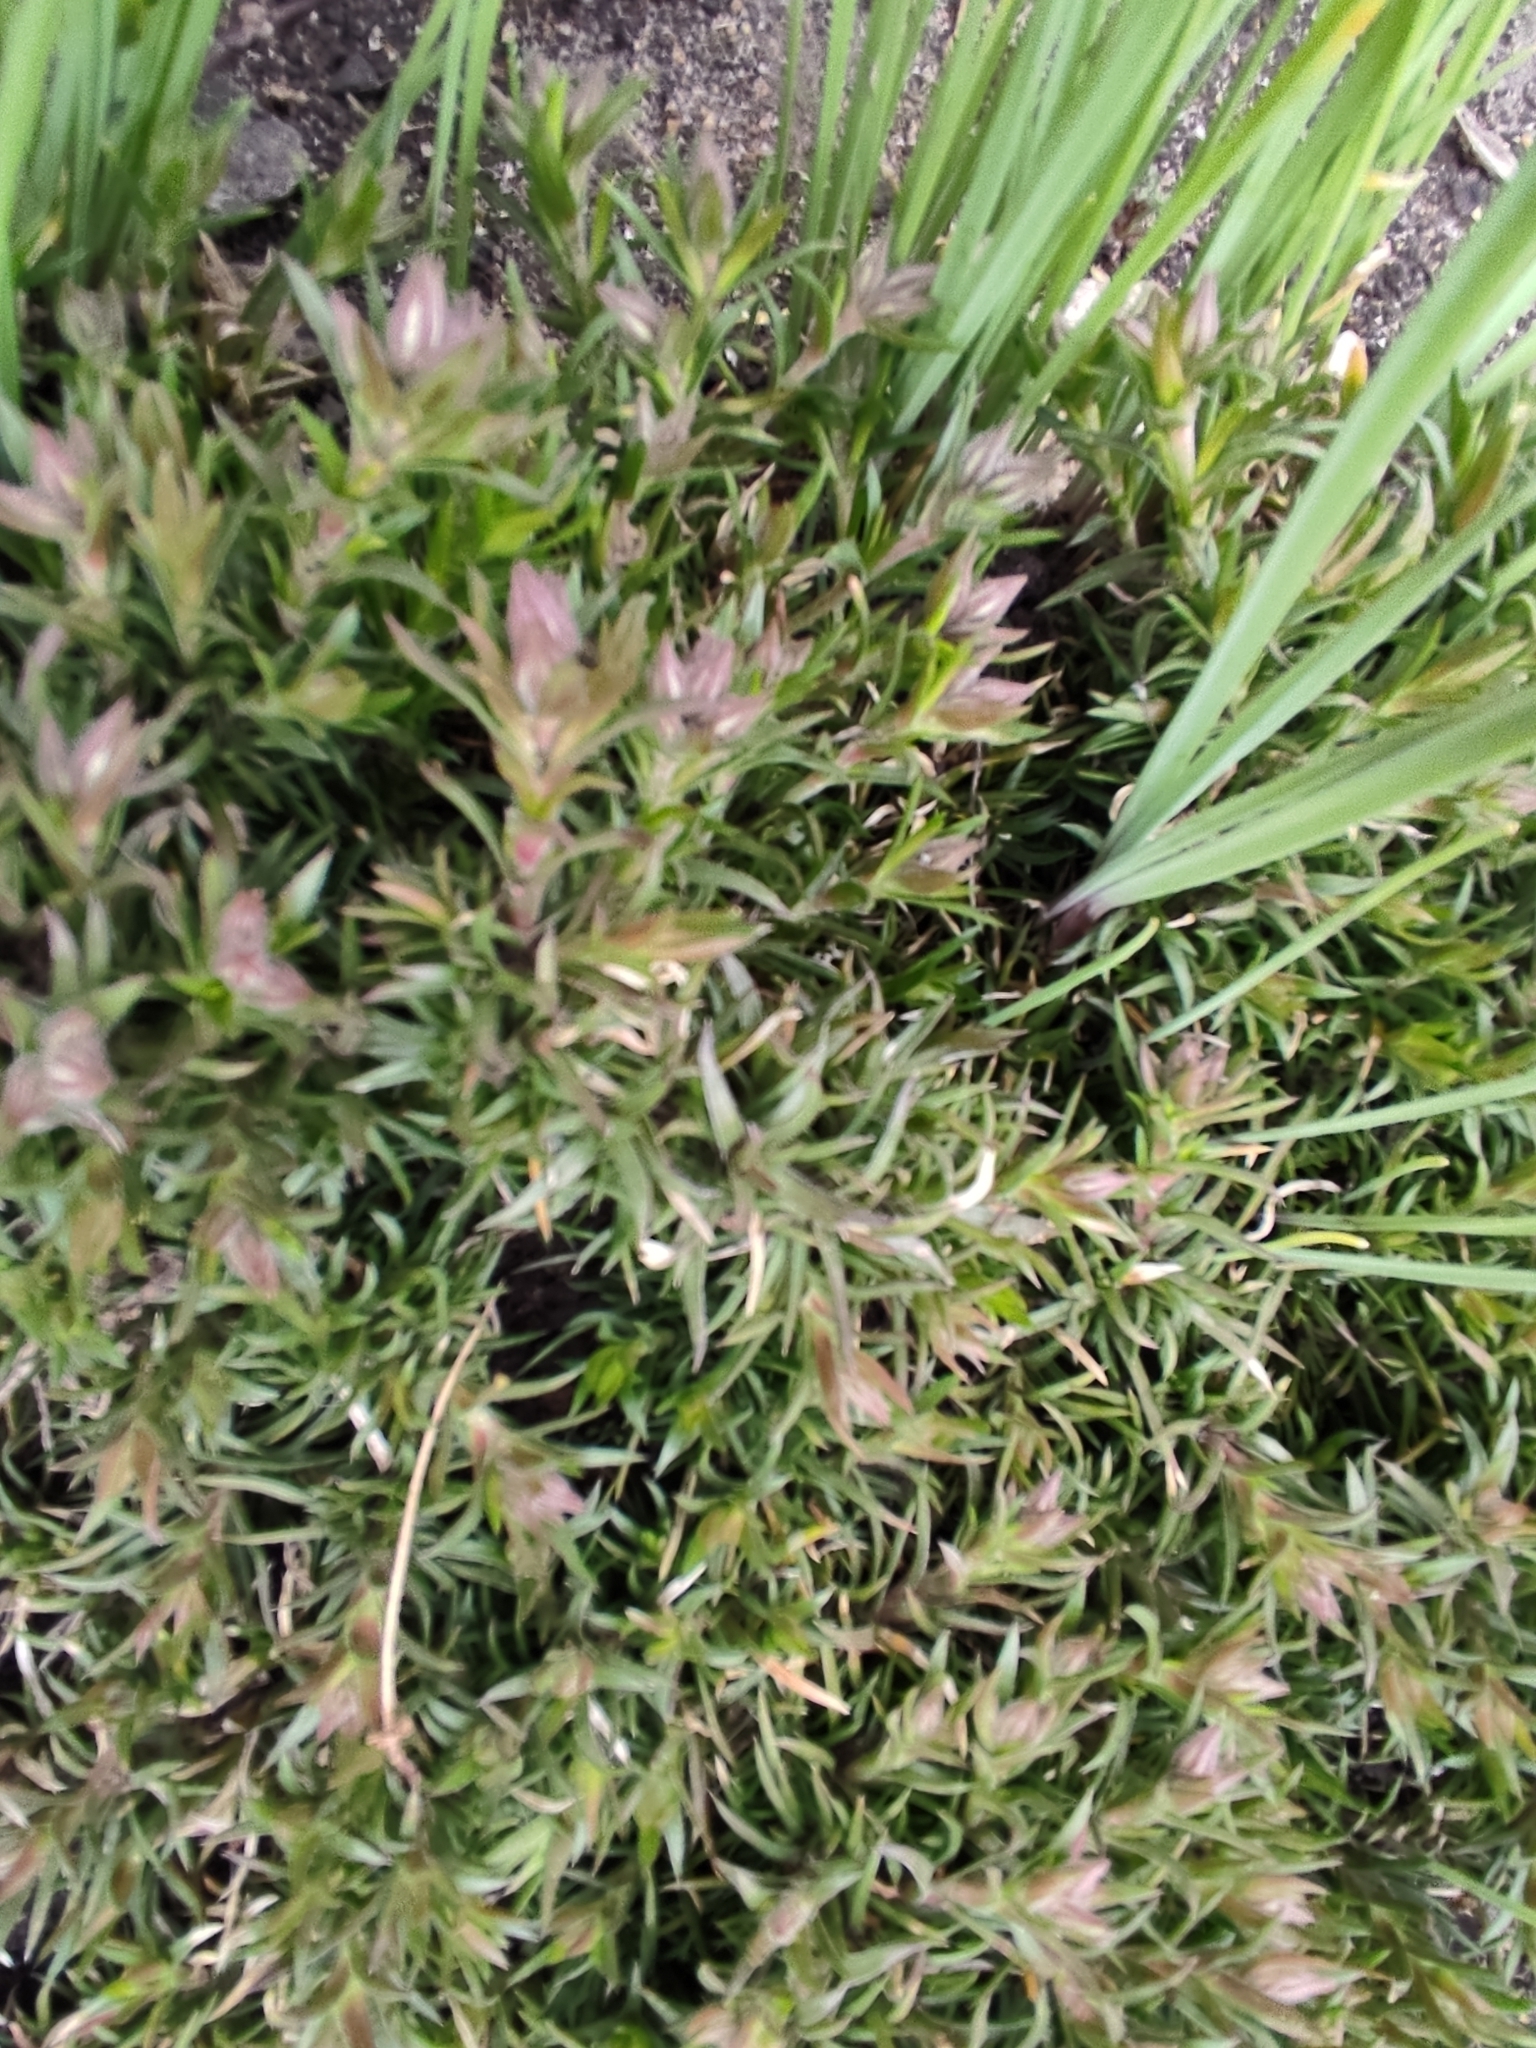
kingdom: Plantae
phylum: Tracheophyta
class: Magnoliopsida
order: Caryophyllales
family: Caryophyllaceae
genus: Spergularia
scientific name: Spergularia rubra
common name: Red sand-spurrey
